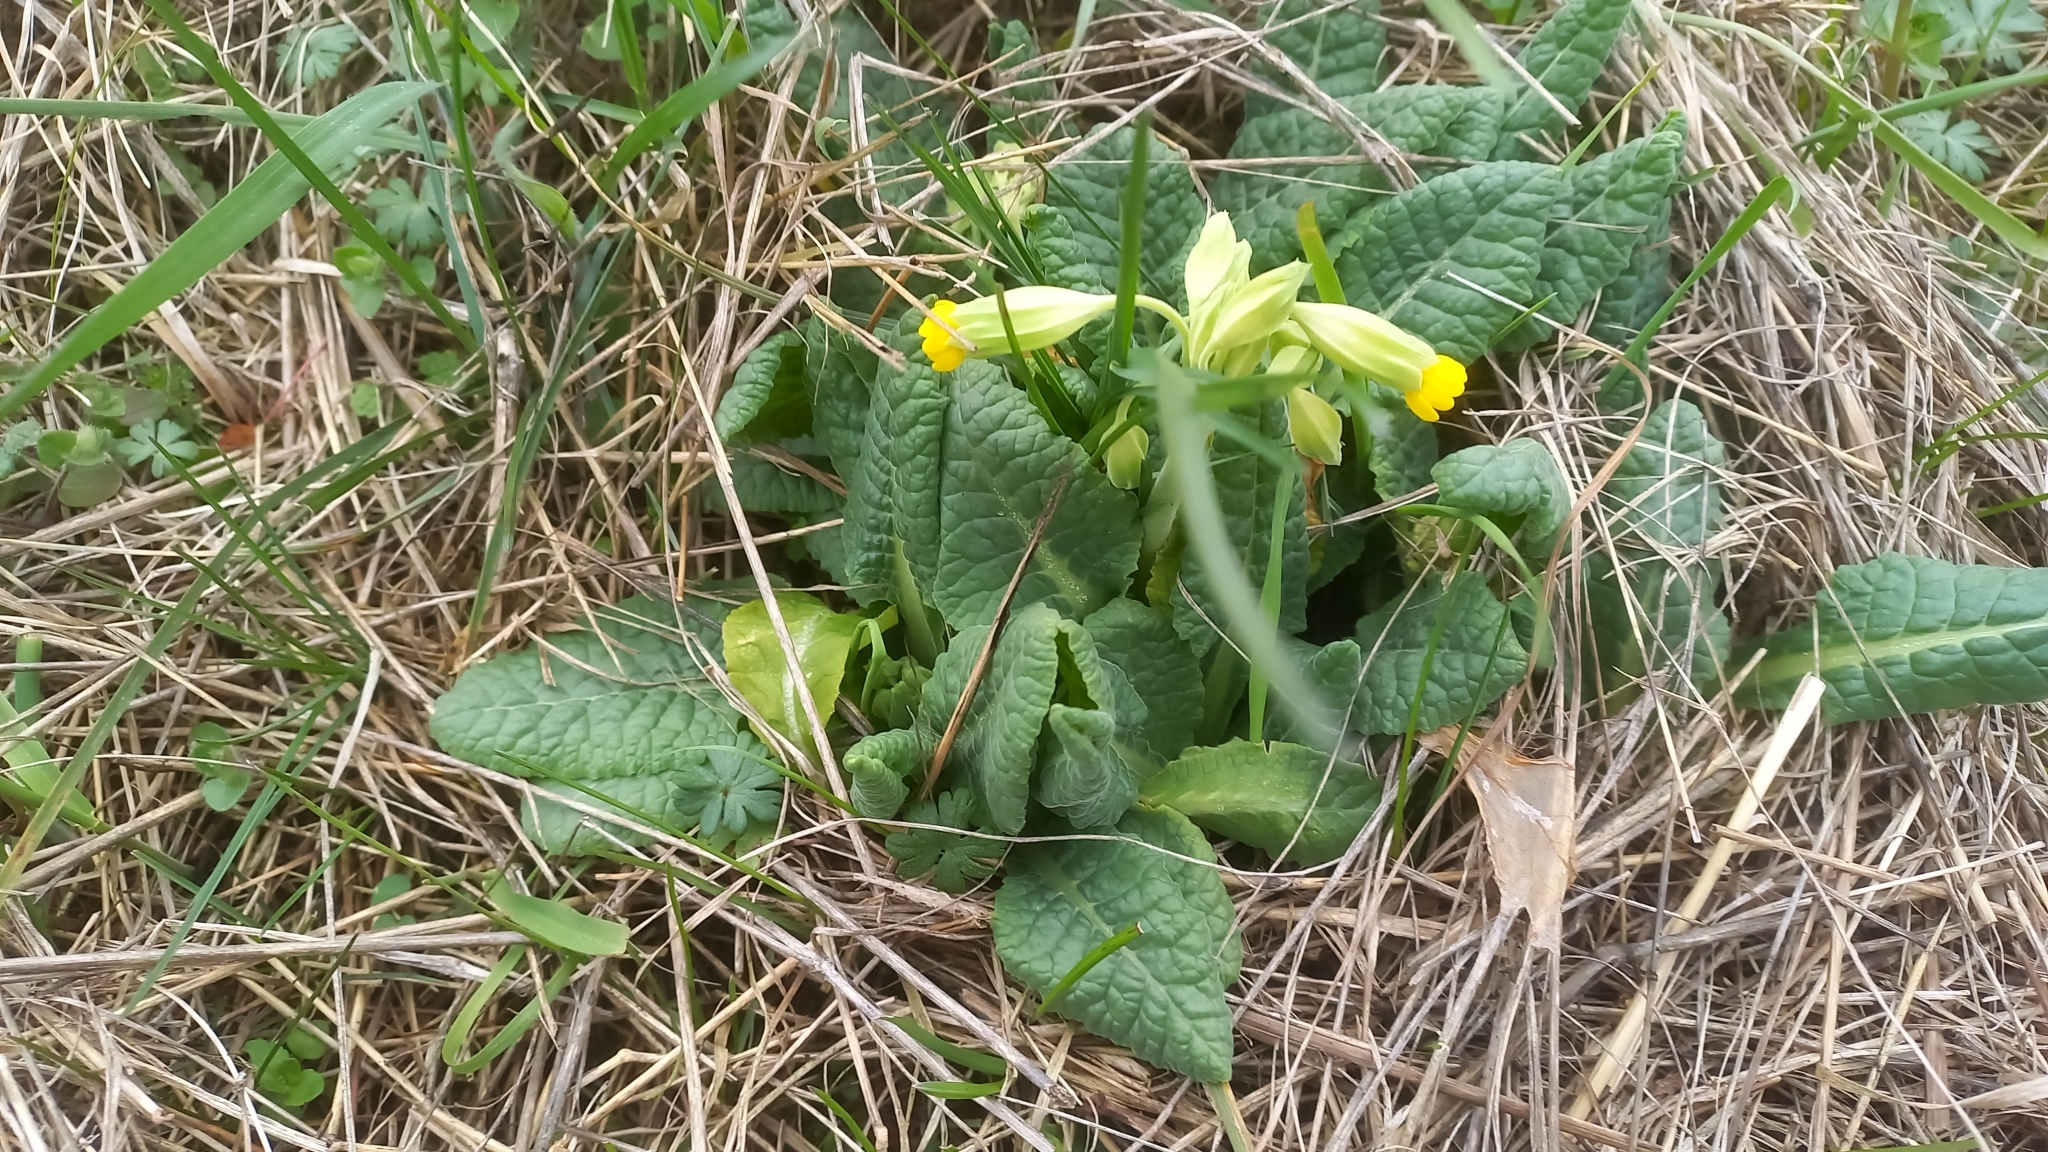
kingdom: Plantae
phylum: Tracheophyta
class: Magnoliopsida
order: Ericales
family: Primulaceae
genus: Primula
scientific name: Primula veris
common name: Cowslip
